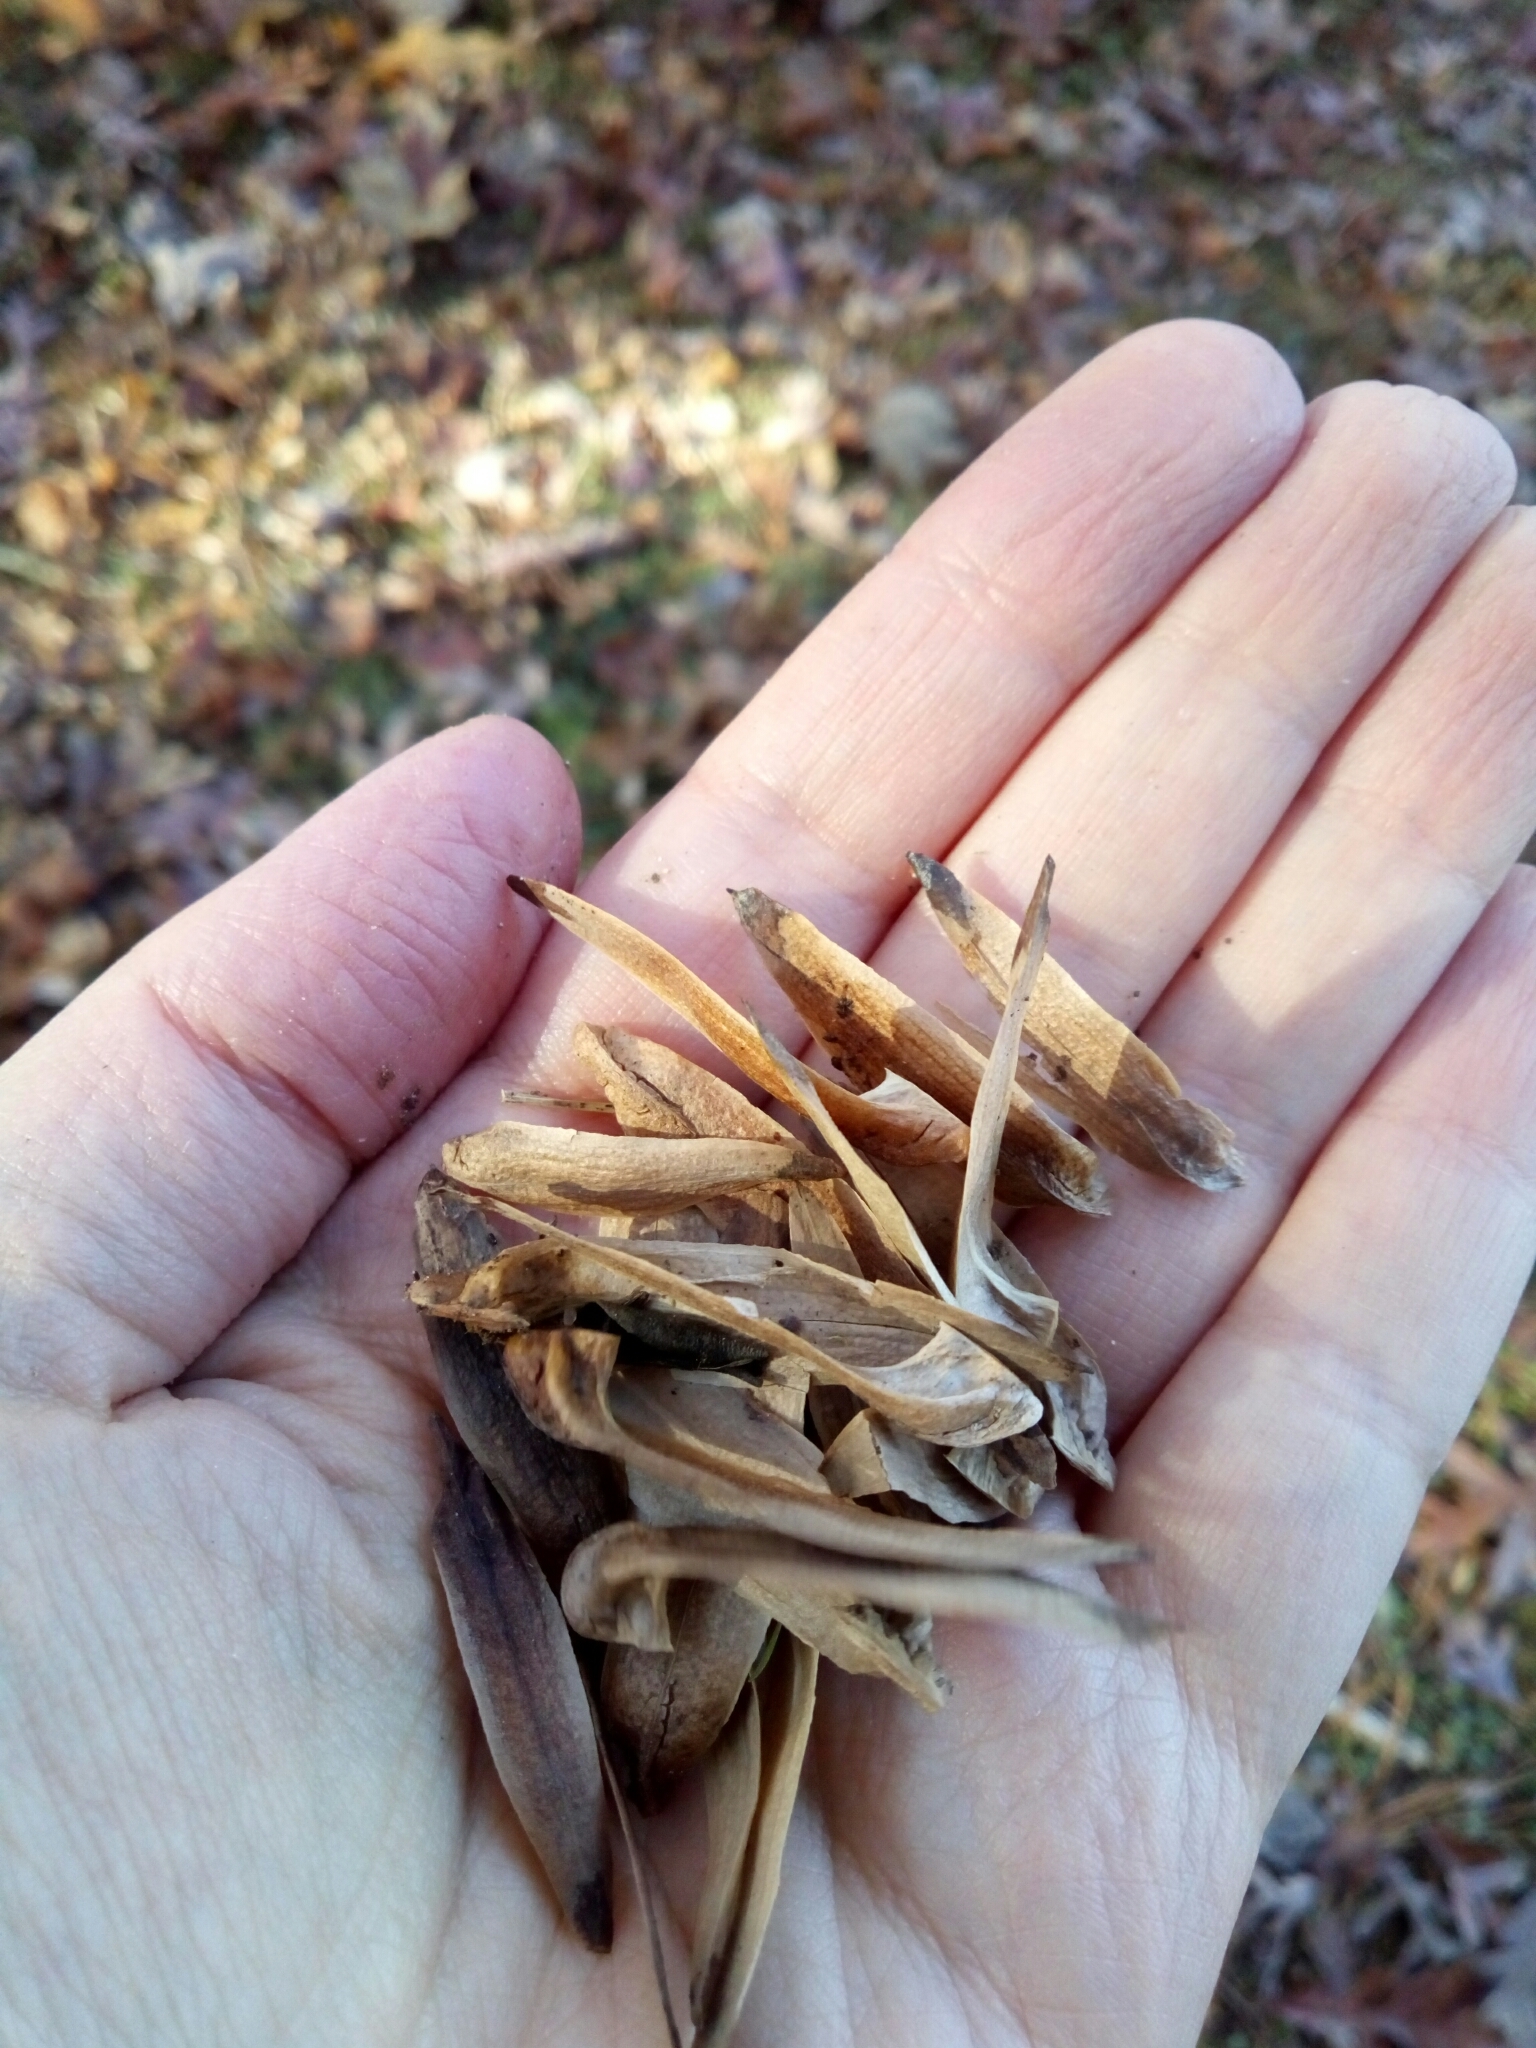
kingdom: Plantae
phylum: Tracheophyta
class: Magnoliopsida
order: Magnoliales
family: Magnoliaceae
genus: Liriodendron
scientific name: Liriodendron tulipifera
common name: Tulip tree
